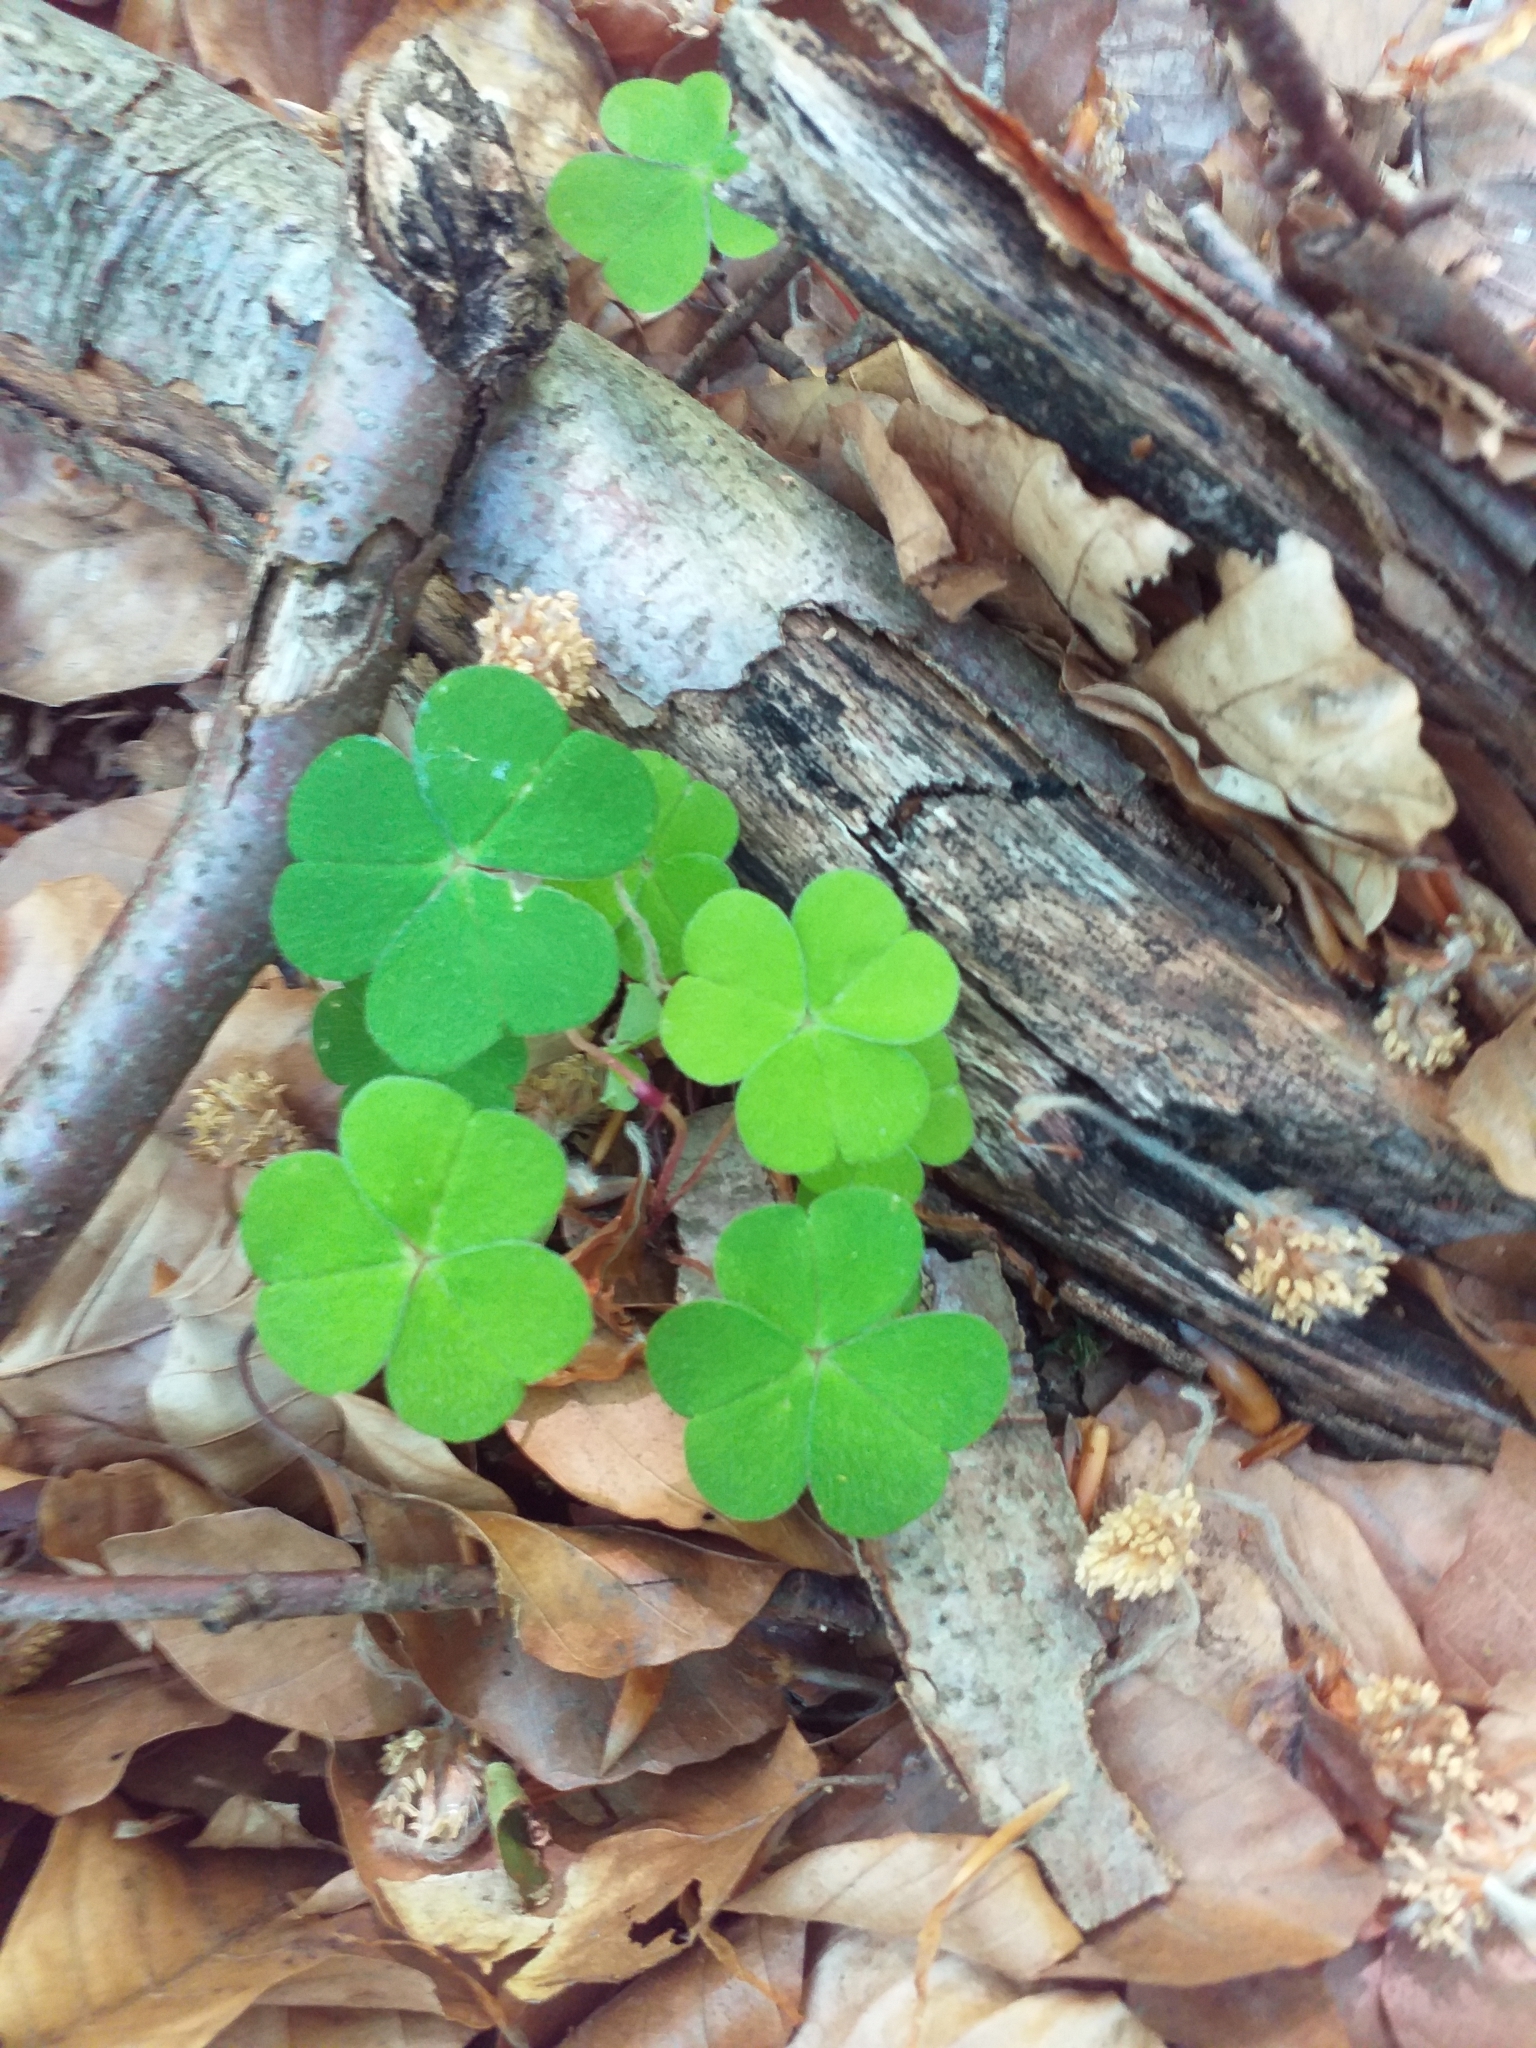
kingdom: Plantae
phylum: Tracheophyta
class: Magnoliopsida
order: Oxalidales
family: Oxalidaceae
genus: Oxalis
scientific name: Oxalis acetosella
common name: Wood-sorrel
